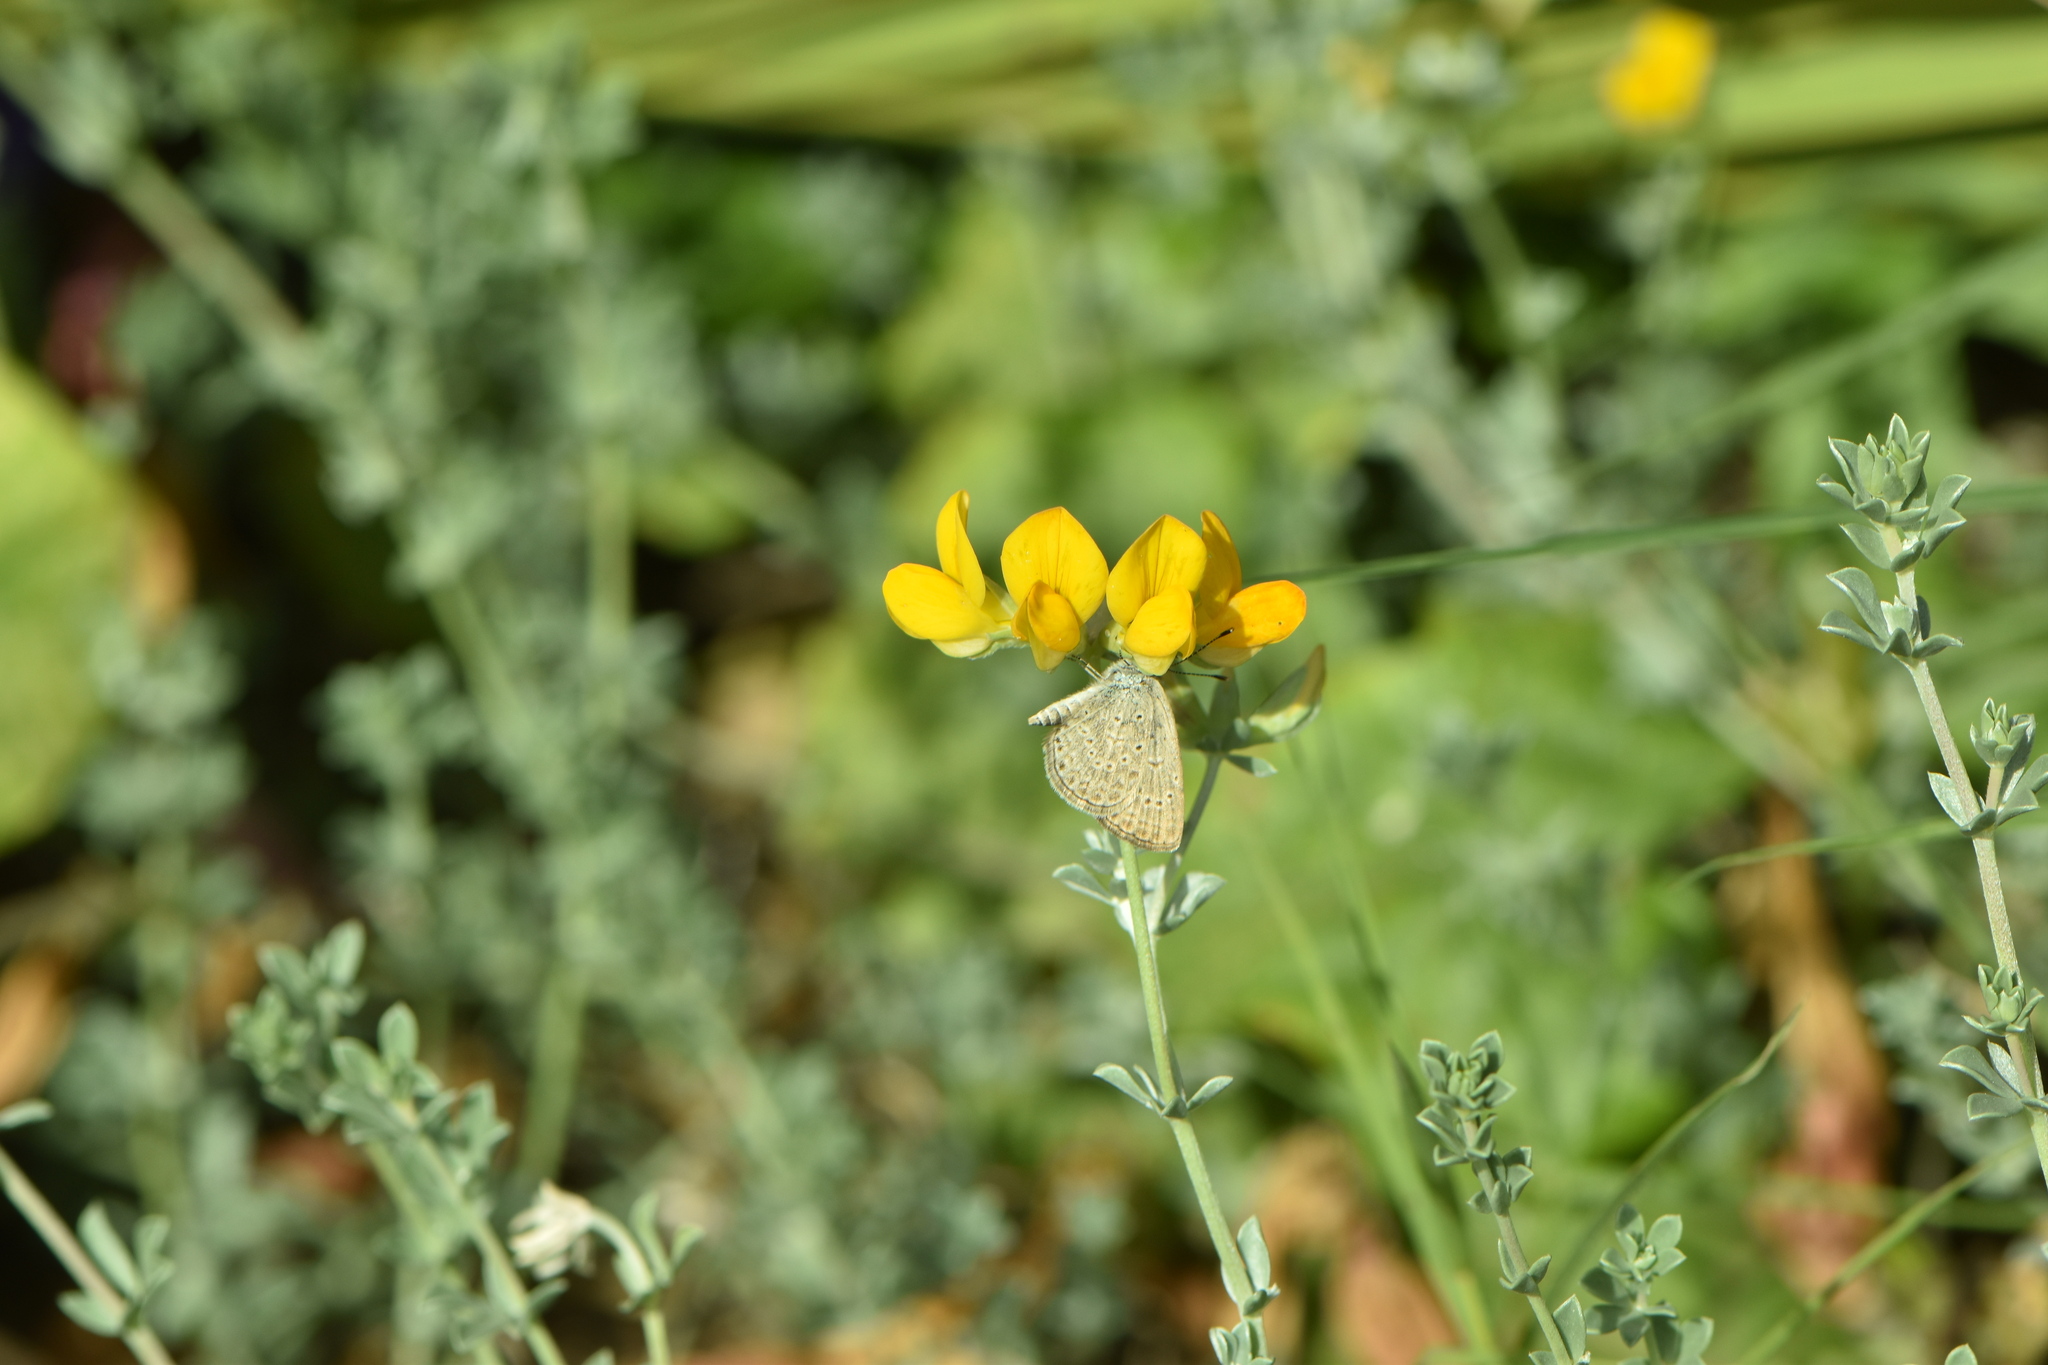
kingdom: Animalia
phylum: Arthropoda
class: Insecta
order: Lepidoptera
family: Lycaenidae
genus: Zizeeria
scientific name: Zizeeria knysna
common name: African grass blue
